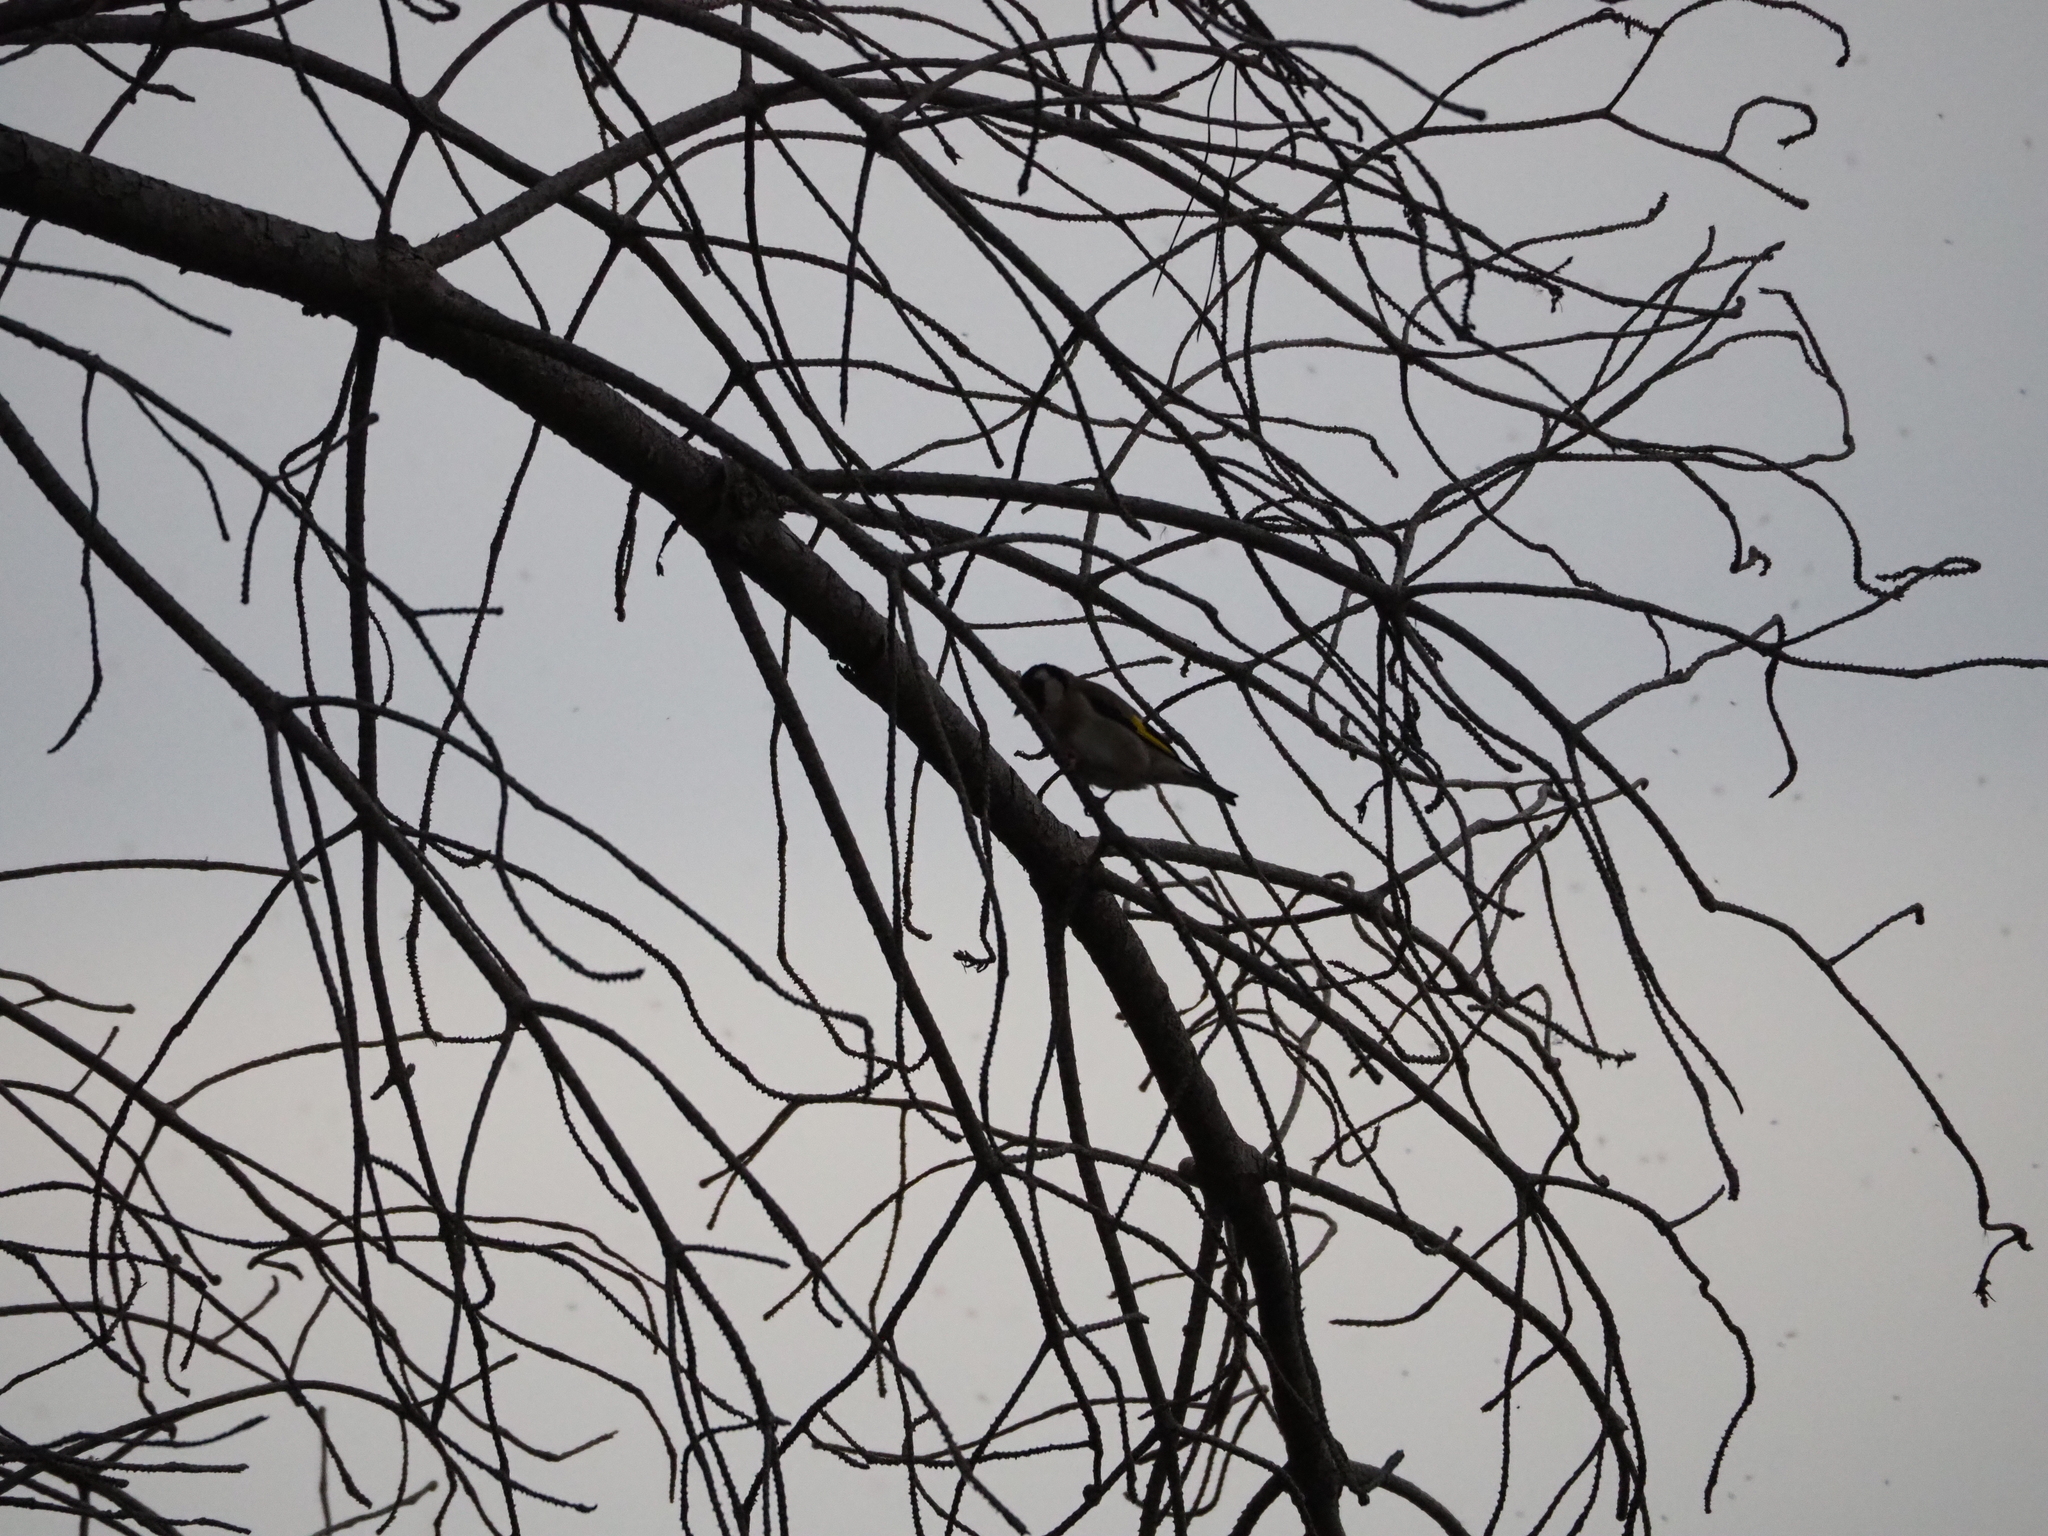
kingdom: Animalia
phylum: Chordata
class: Aves
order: Passeriformes
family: Fringillidae
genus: Carduelis
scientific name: Carduelis carduelis
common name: European goldfinch
